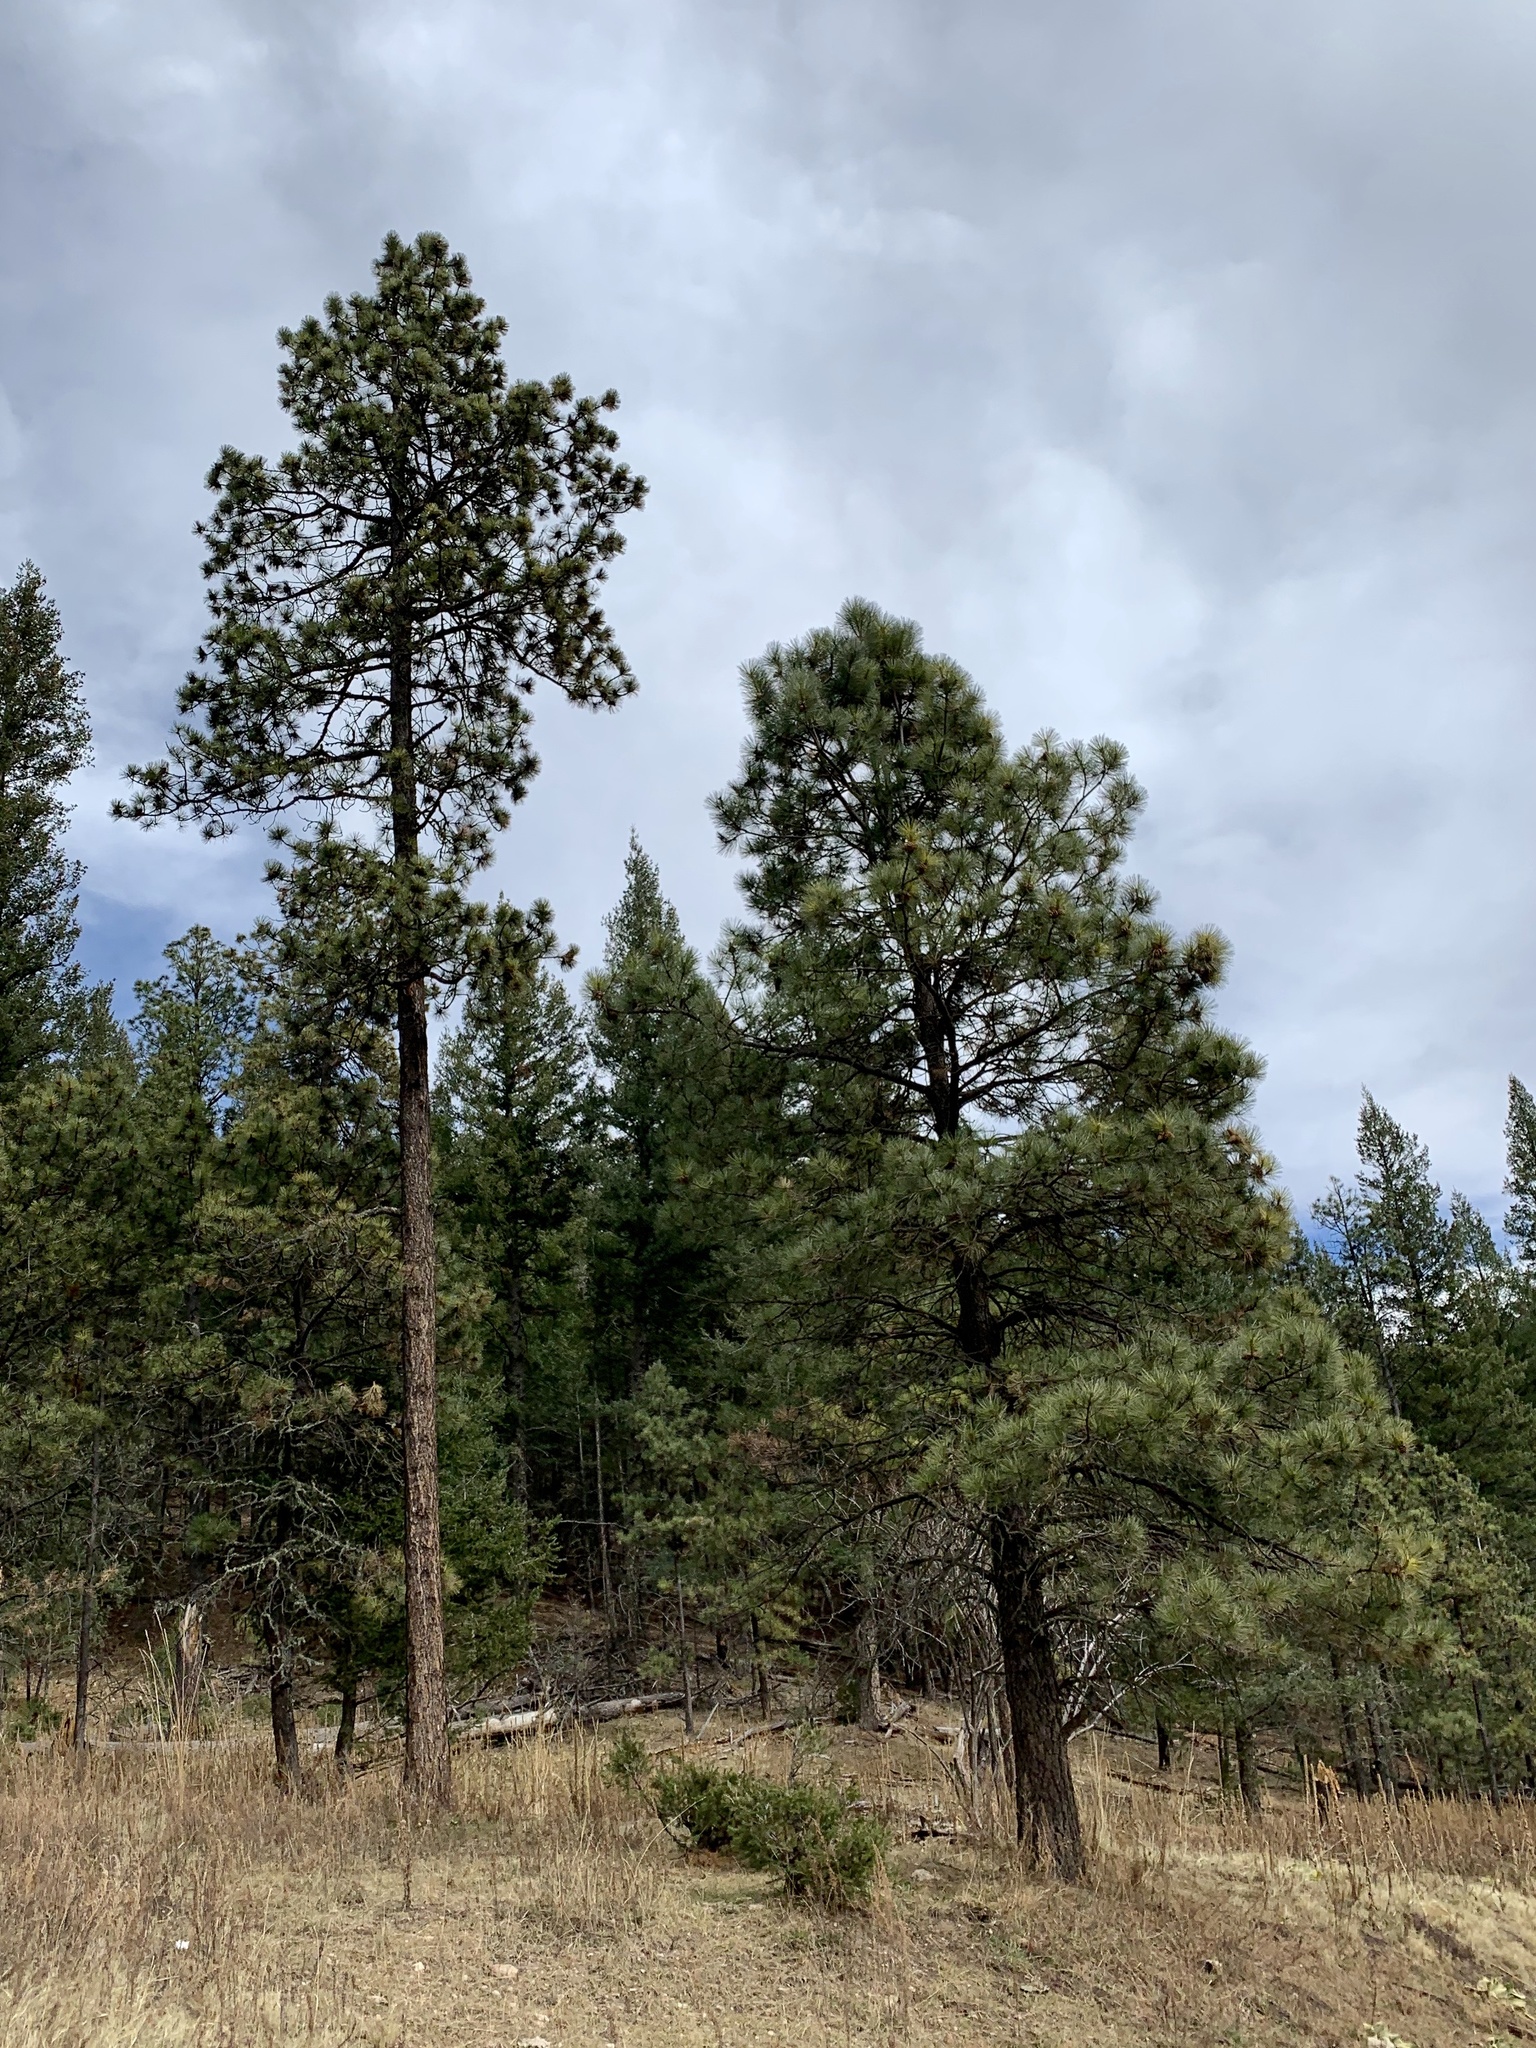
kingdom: Plantae
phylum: Tracheophyta
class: Pinopsida
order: Pinales
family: Pinaceae
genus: Pinus
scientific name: Pinus ponderosa
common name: Western yellow-pine
